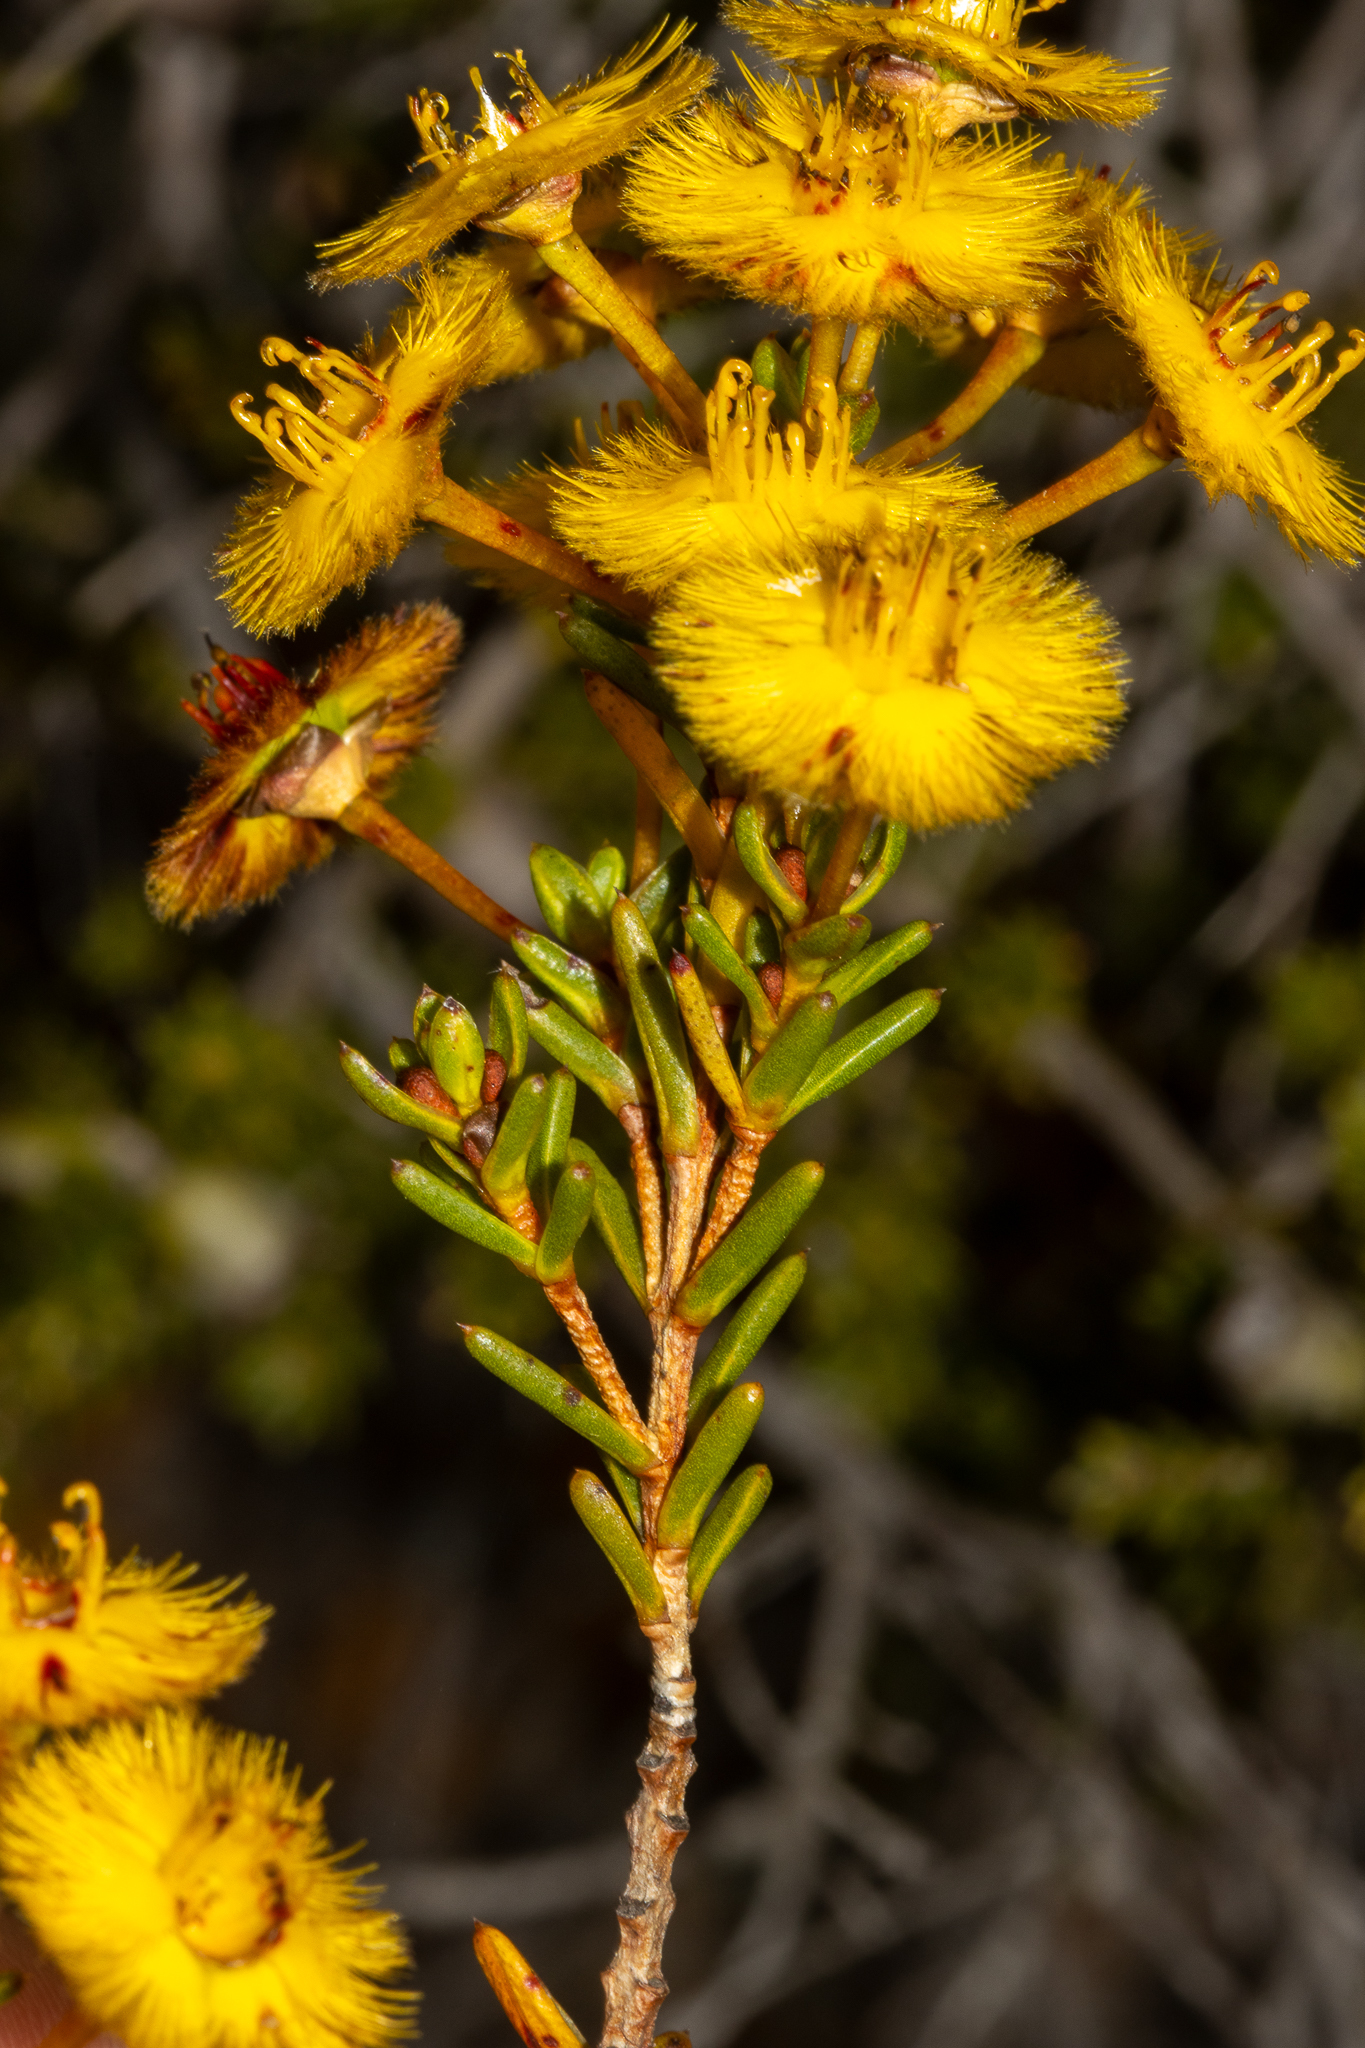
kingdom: Plantae
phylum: Tracheophyta
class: Magnoliopsida
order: Myrtales
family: Myrtaceae
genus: Verticordia
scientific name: Verticordia nobilis
